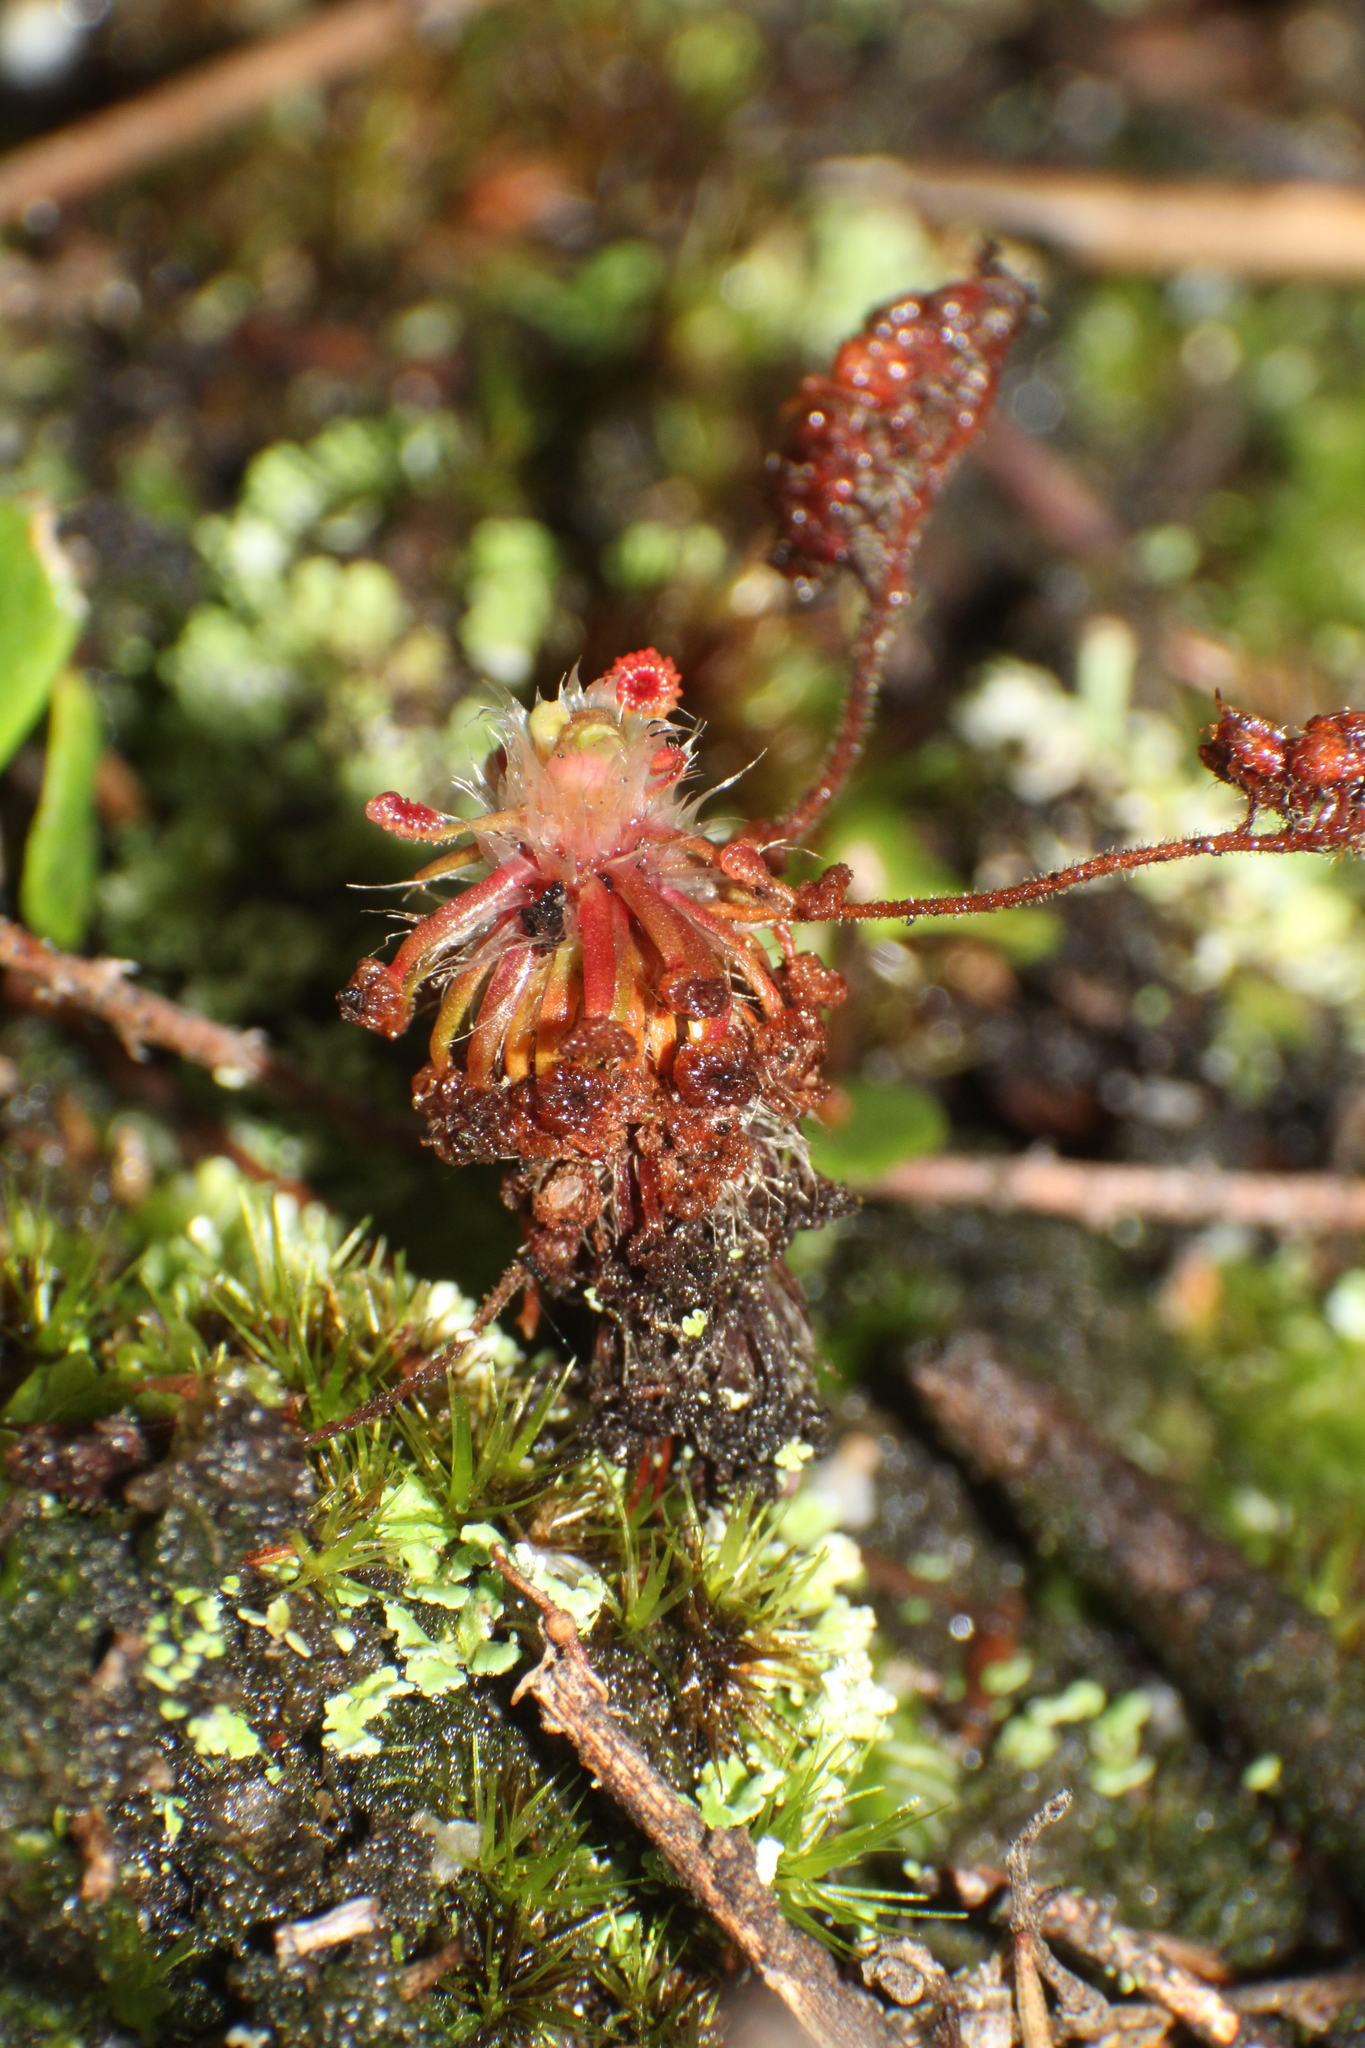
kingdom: Plantae
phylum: Tracheophyta
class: Magnoliopsida
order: Caryophyllales
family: Droseraceae
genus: Drosera
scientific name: Drosera paleacea
